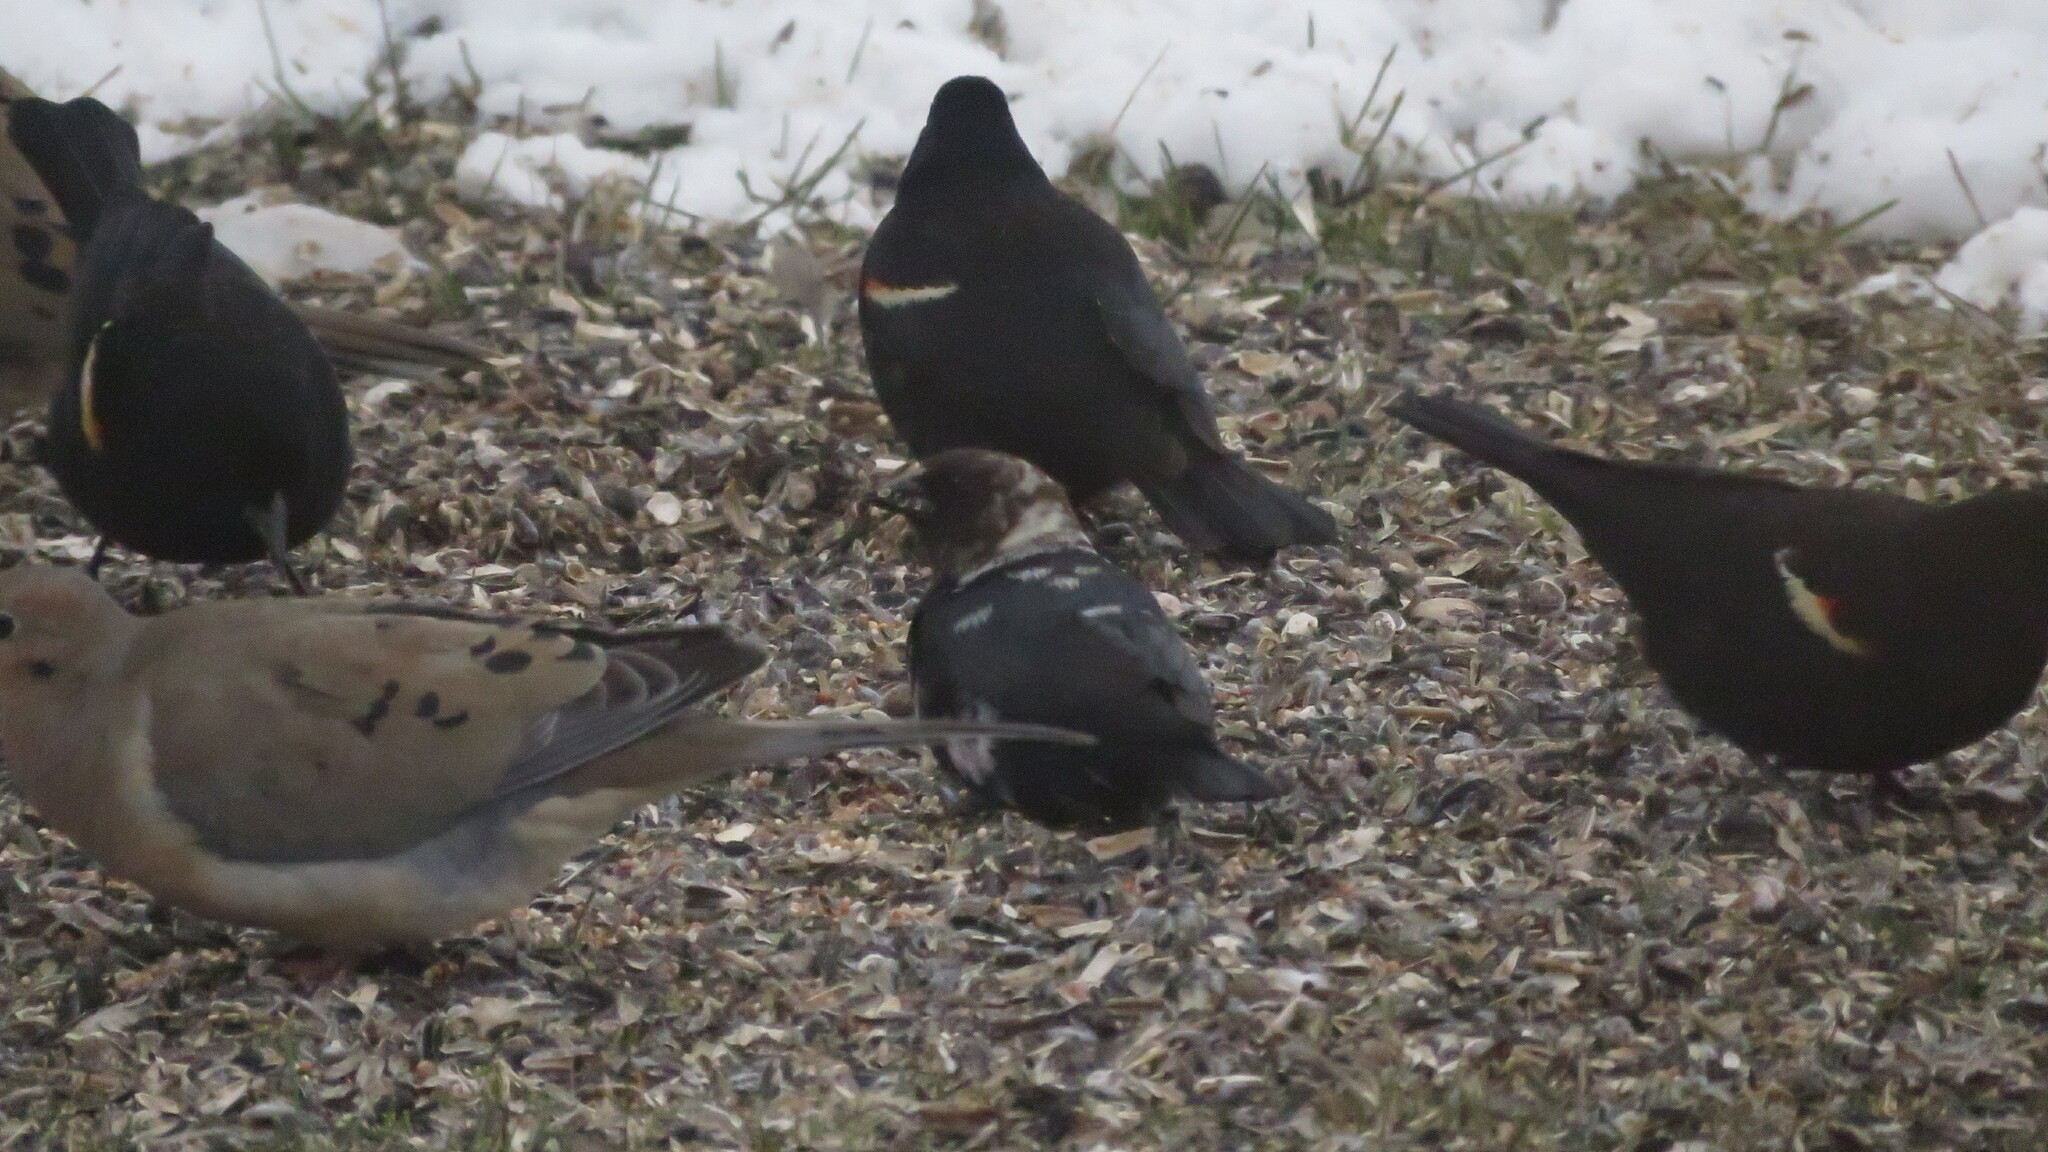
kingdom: Animalia
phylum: Chordata
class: Aves
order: Passeriformes
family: Icteridae
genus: Molothrus
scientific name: Molothrus ater
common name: Brown-headed cowbird
